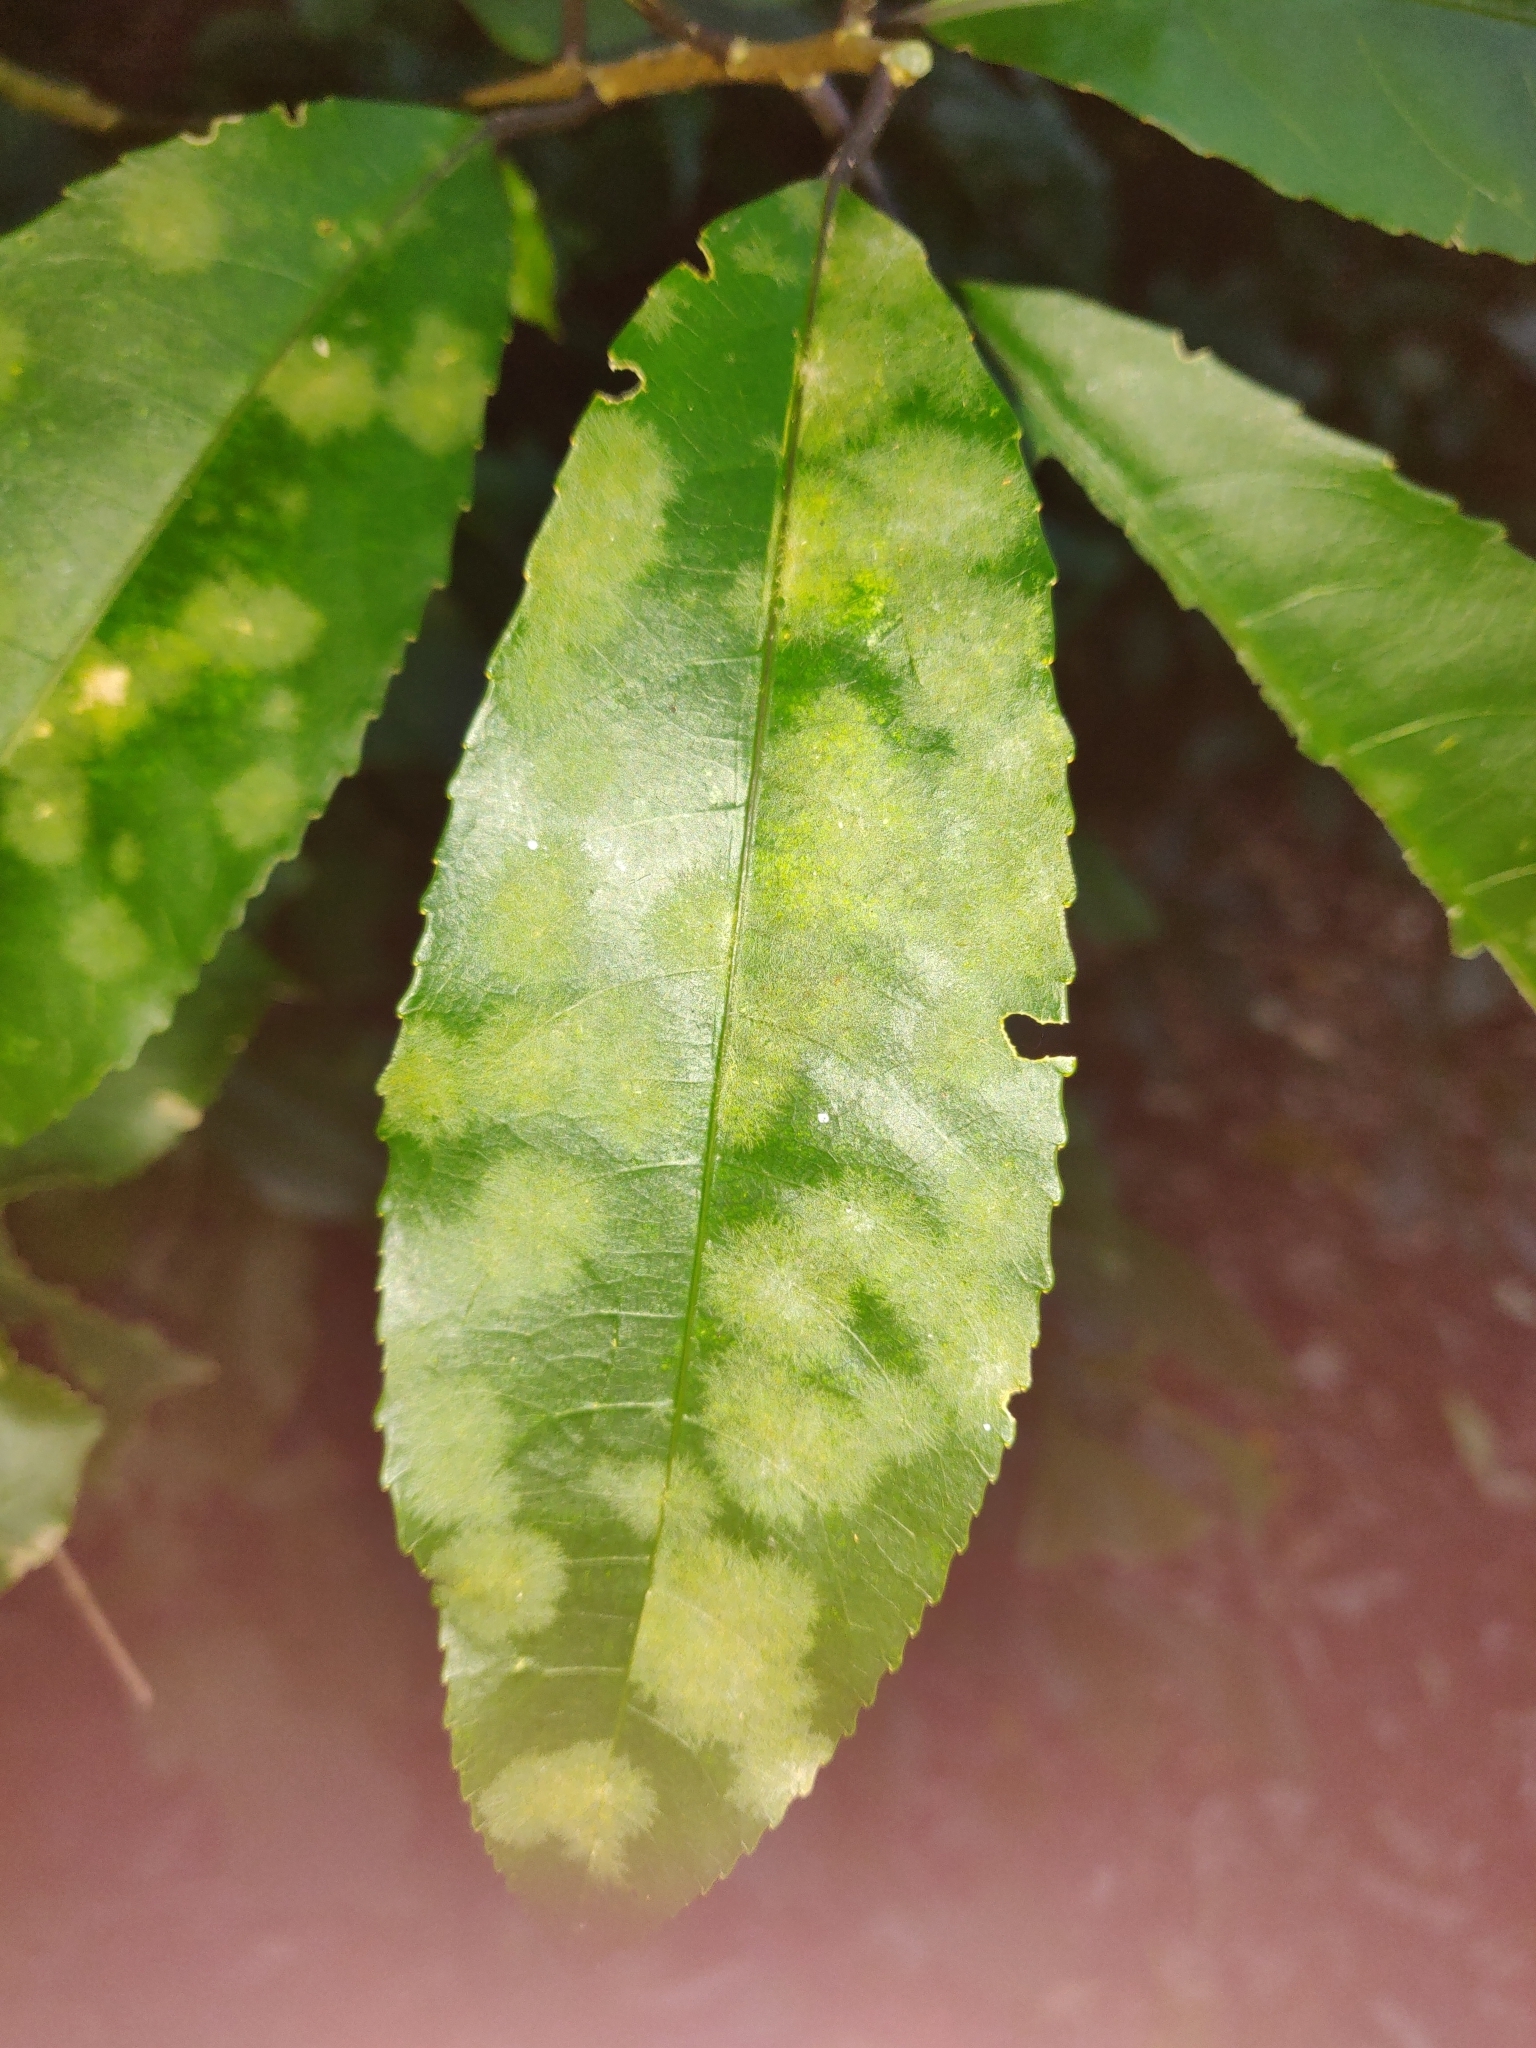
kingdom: Plantae
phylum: Chlorophyta
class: Ulvophyceae
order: Trentepohliales
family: Trentepohliaceae
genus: Cephaleuros
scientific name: Cephaleuros
